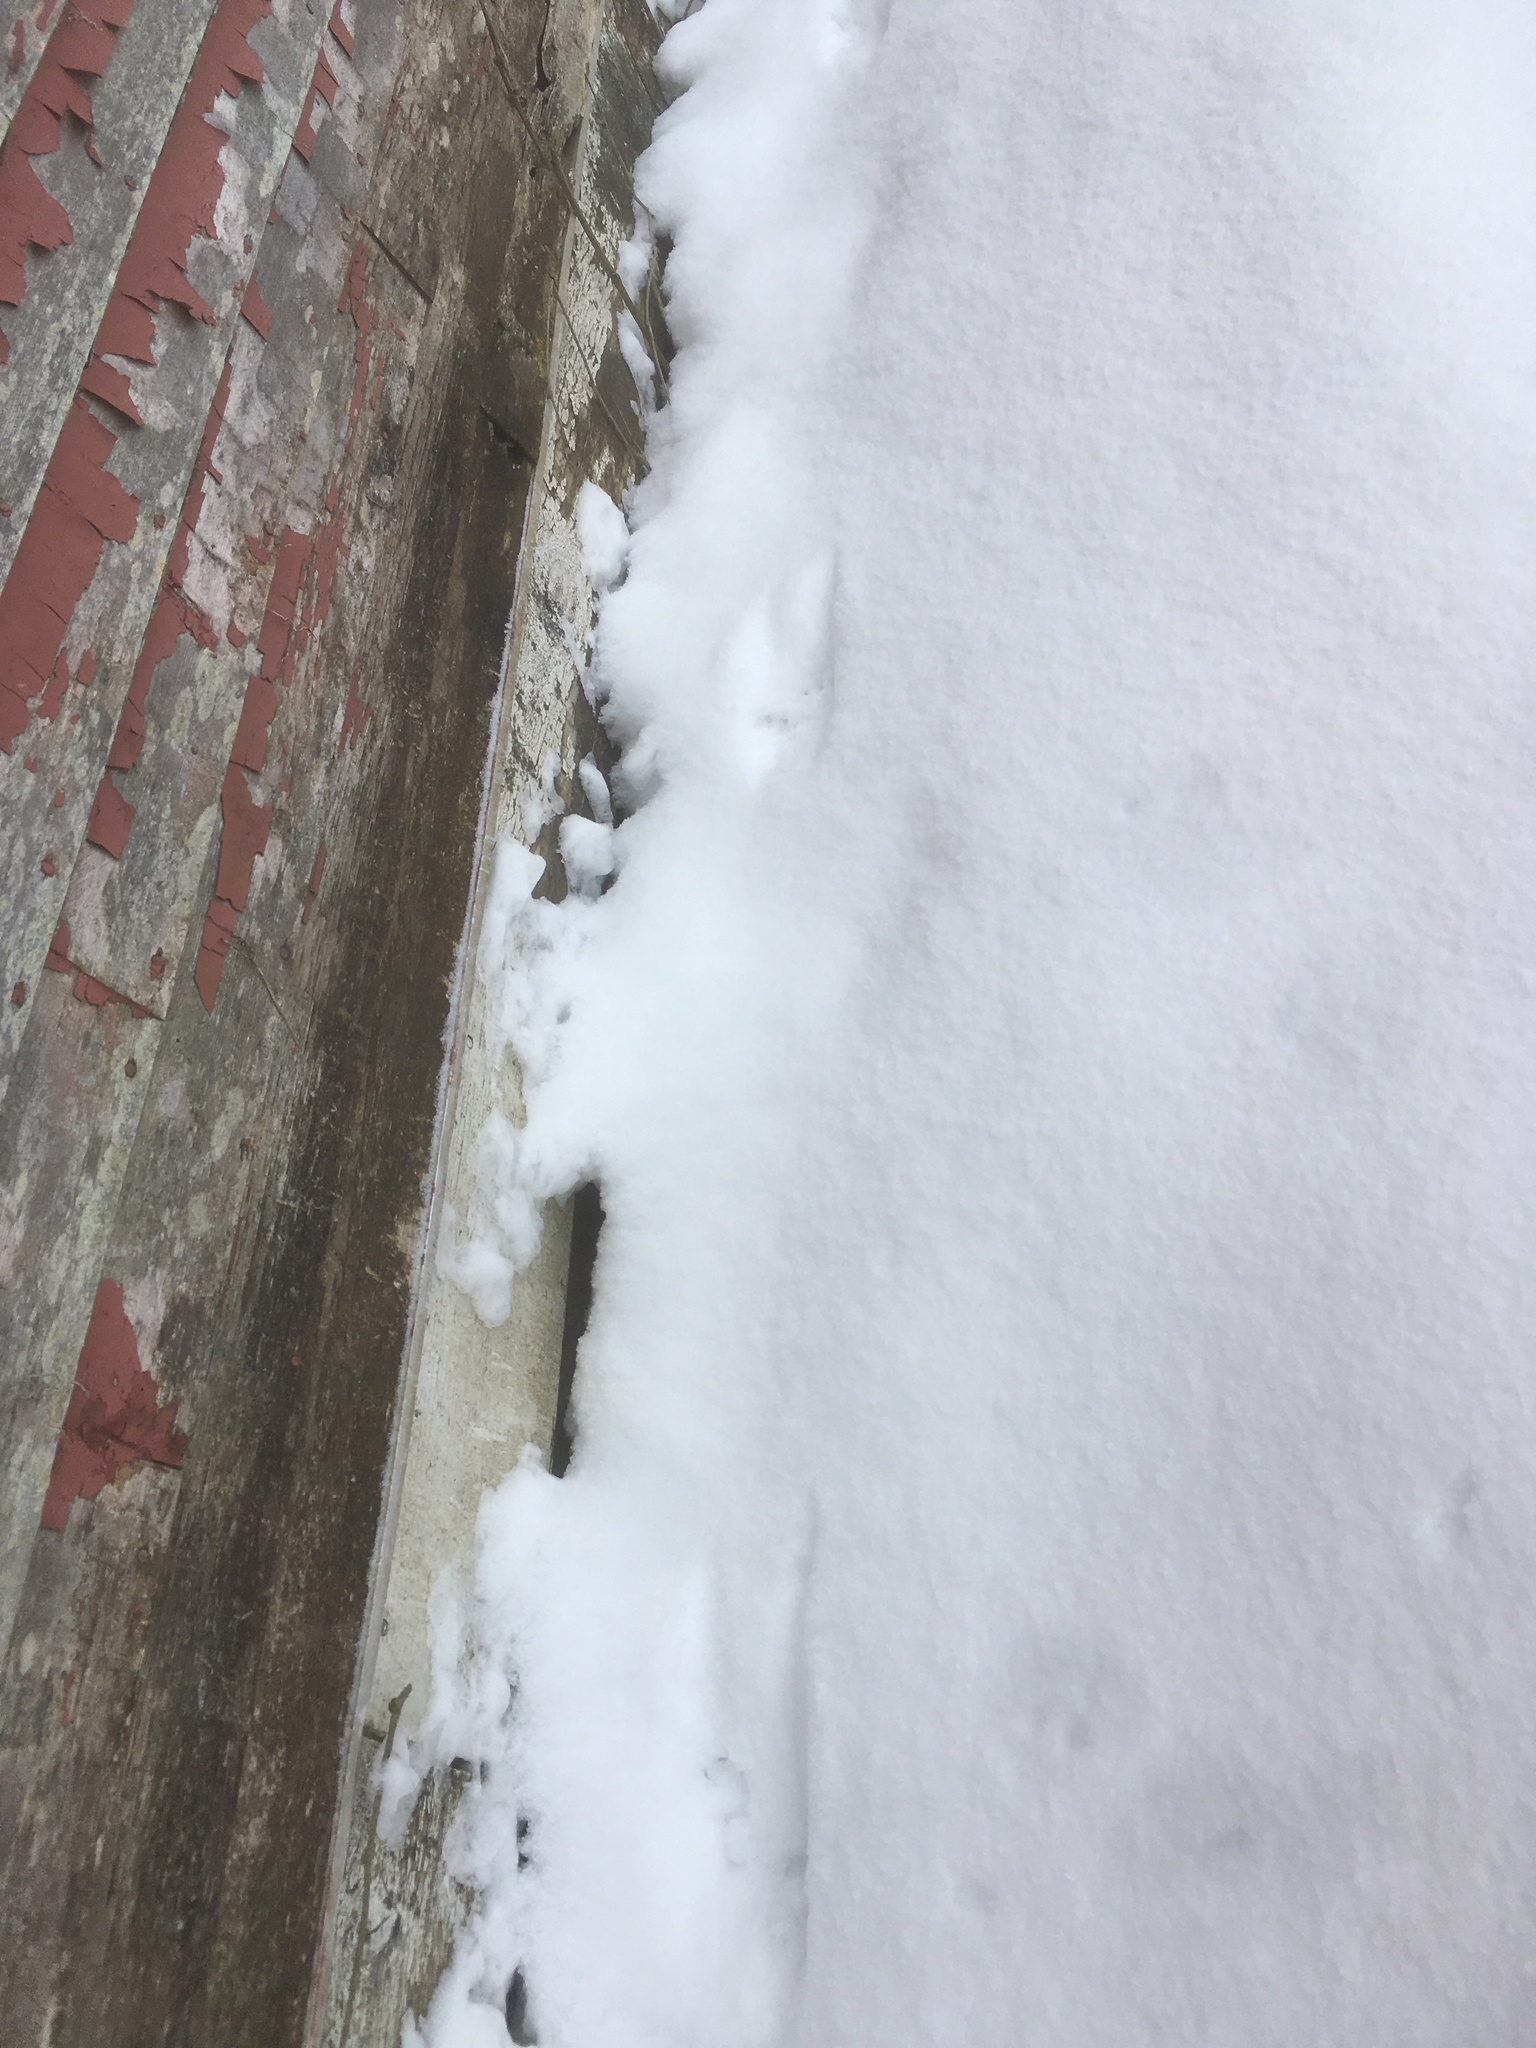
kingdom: Animalia
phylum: Chordata
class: Mammalia
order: Carnivora
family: Mustelidae
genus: Mustela
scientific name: Mustela
